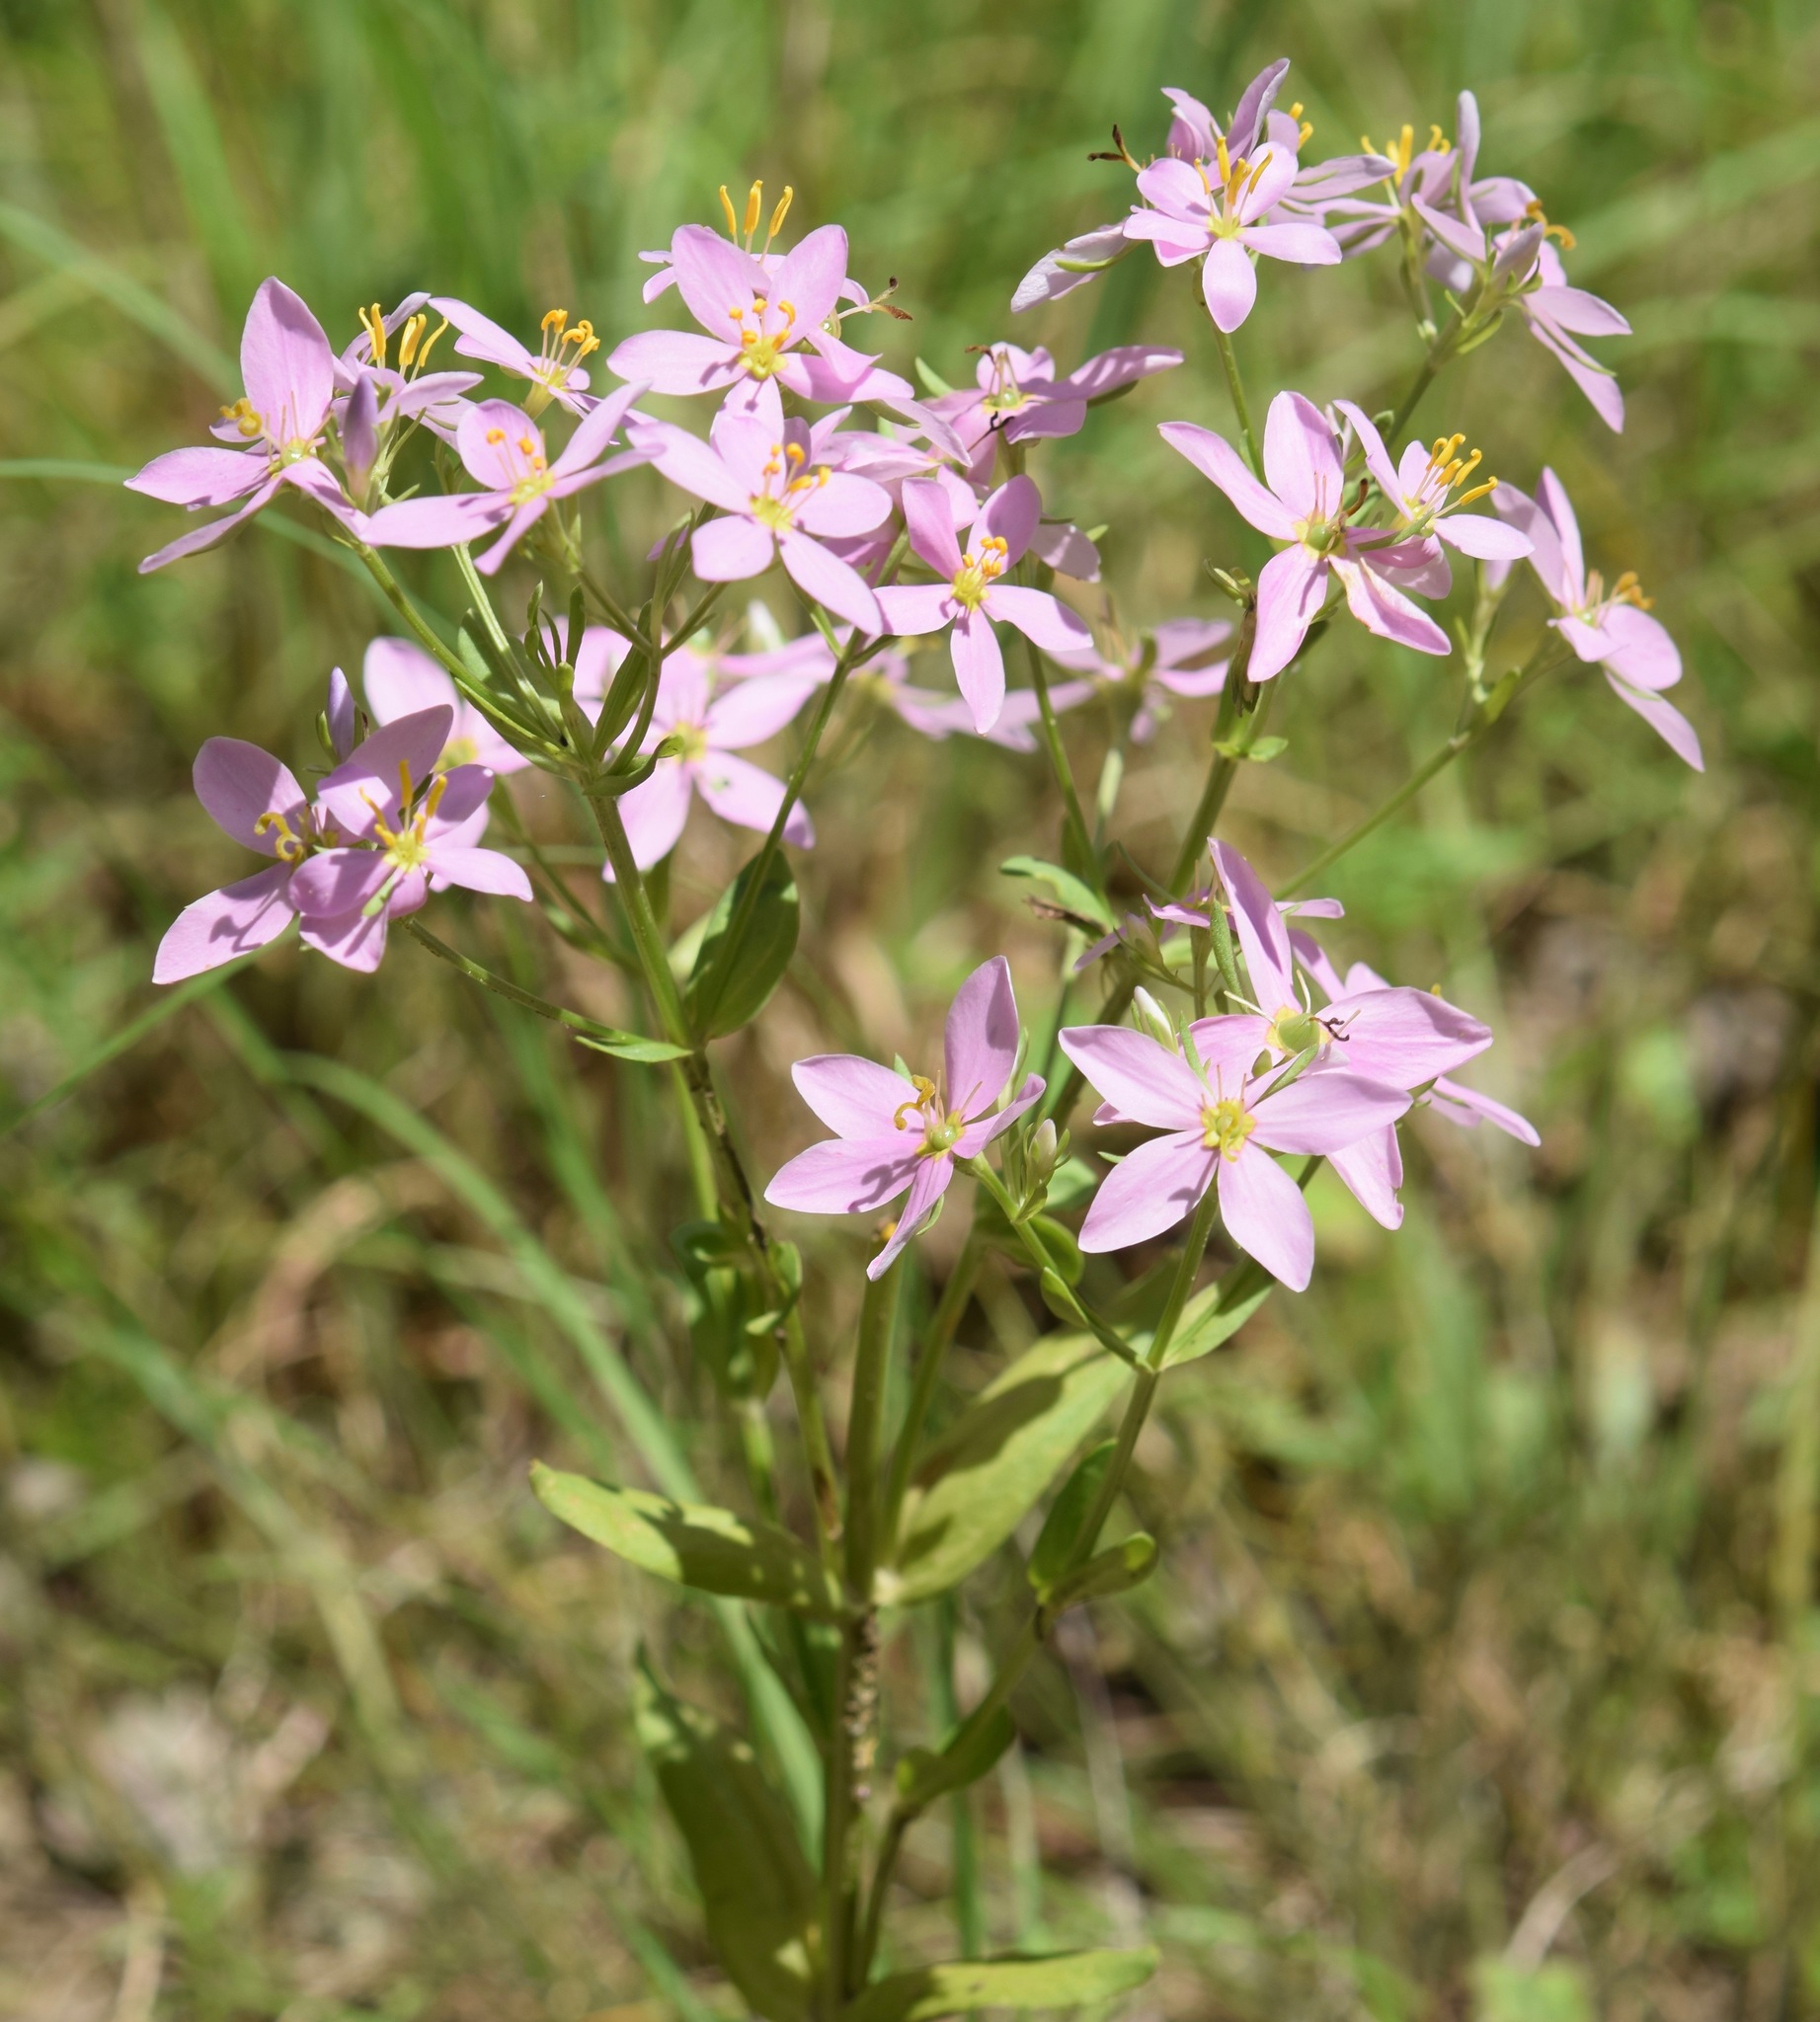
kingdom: Plantae
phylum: Tracheophyta
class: Magnoliopsida
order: Gentianales
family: Gentianaceae
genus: Sabatia
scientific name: Sabatia angularis
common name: Rose-pink
